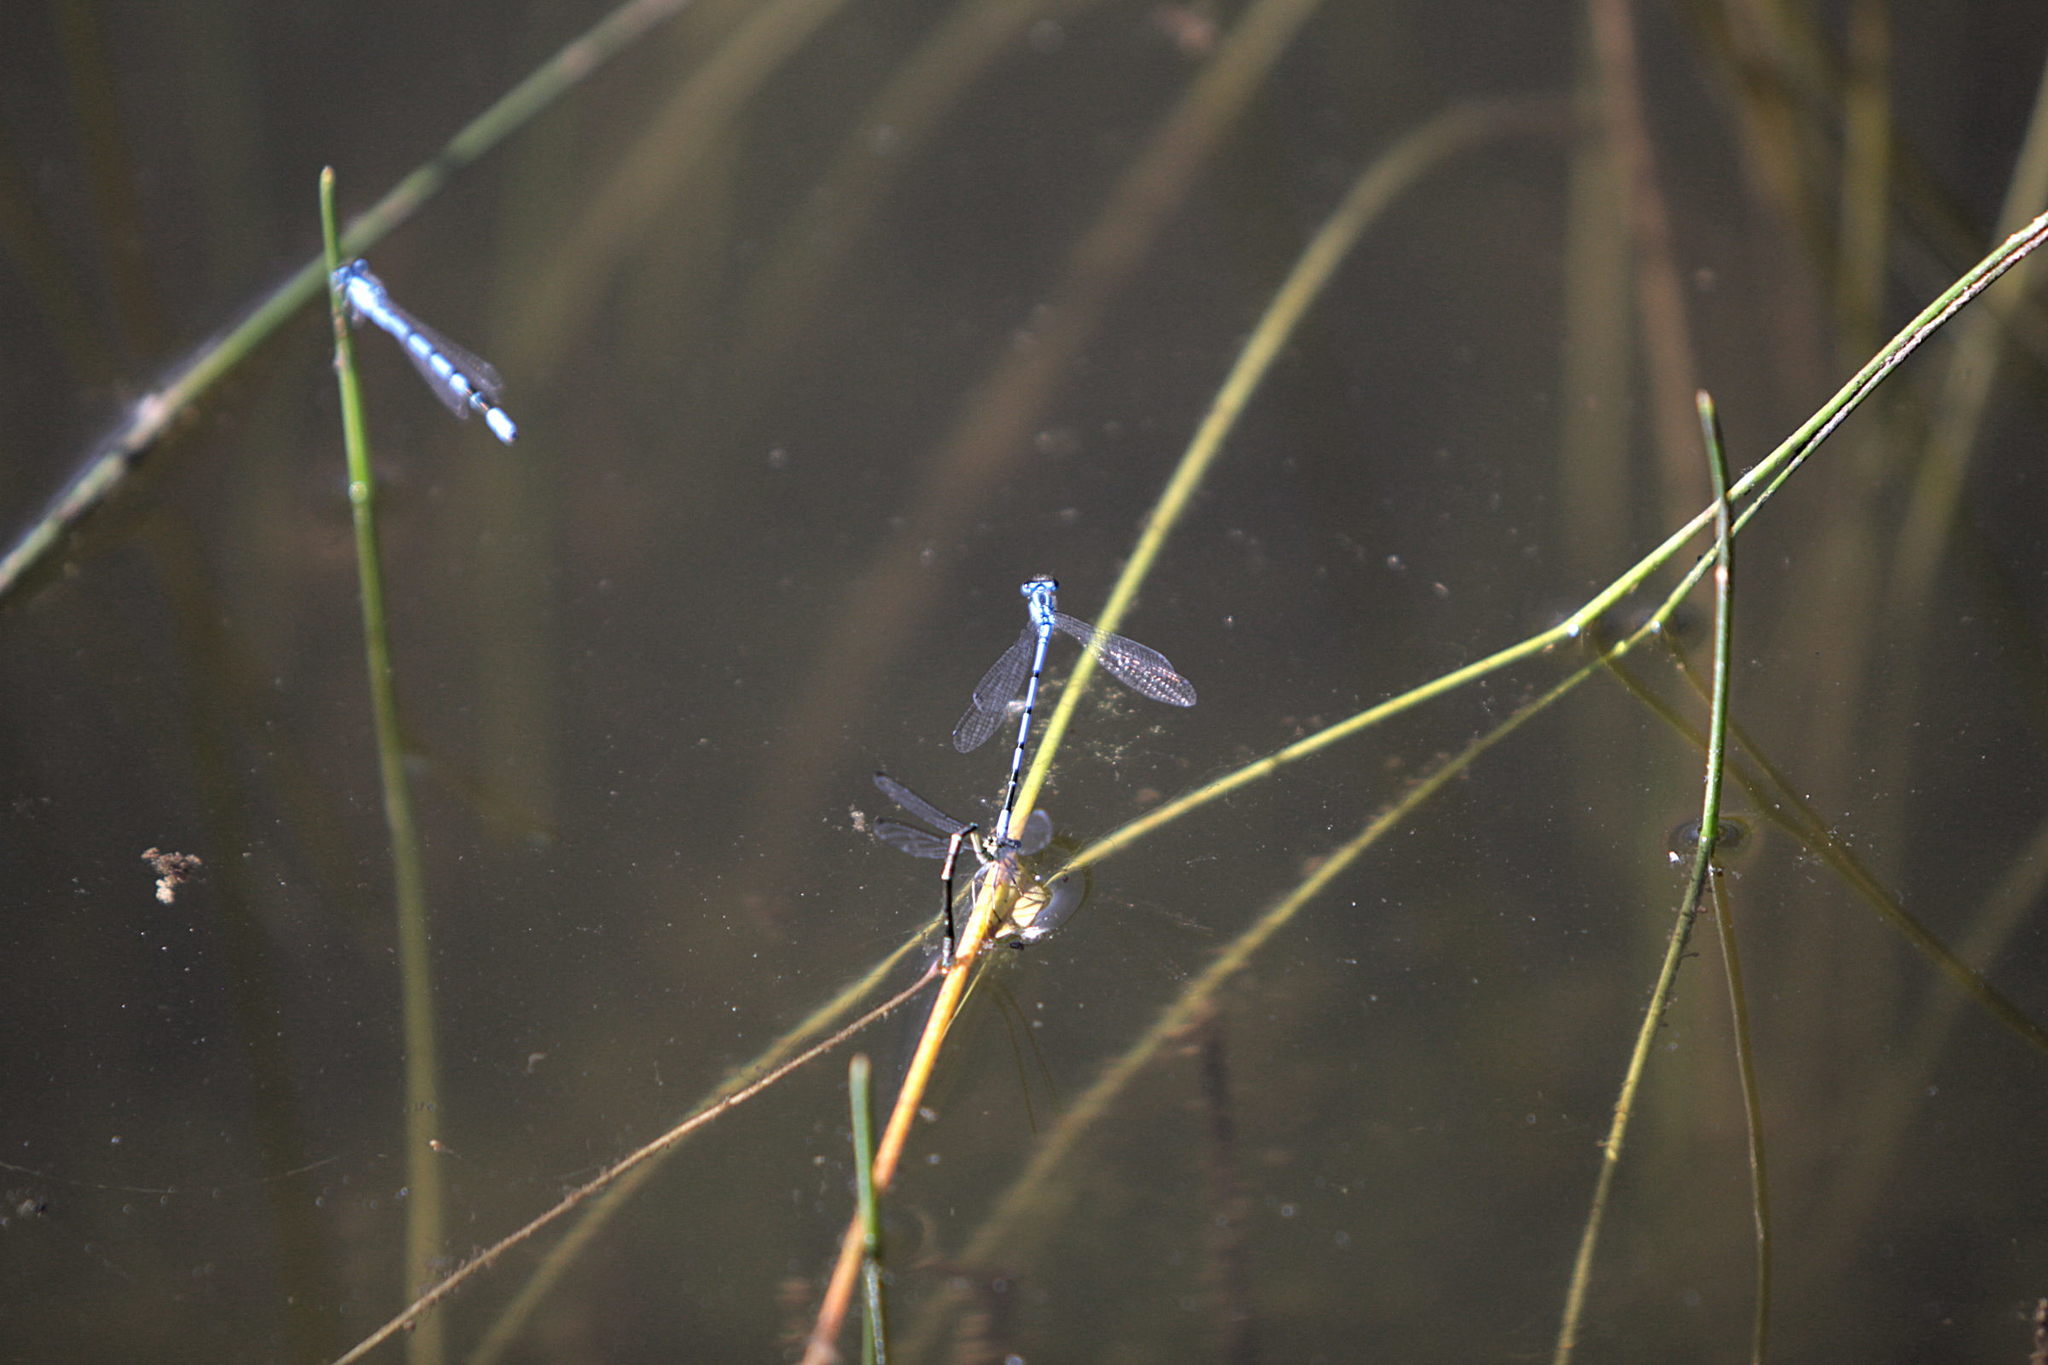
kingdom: Animalia
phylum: Arthropoda
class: Insecta
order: Odonata
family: Coenagrionidae
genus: Coenagrion
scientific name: Coenagrion puella
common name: Azure damselfly
